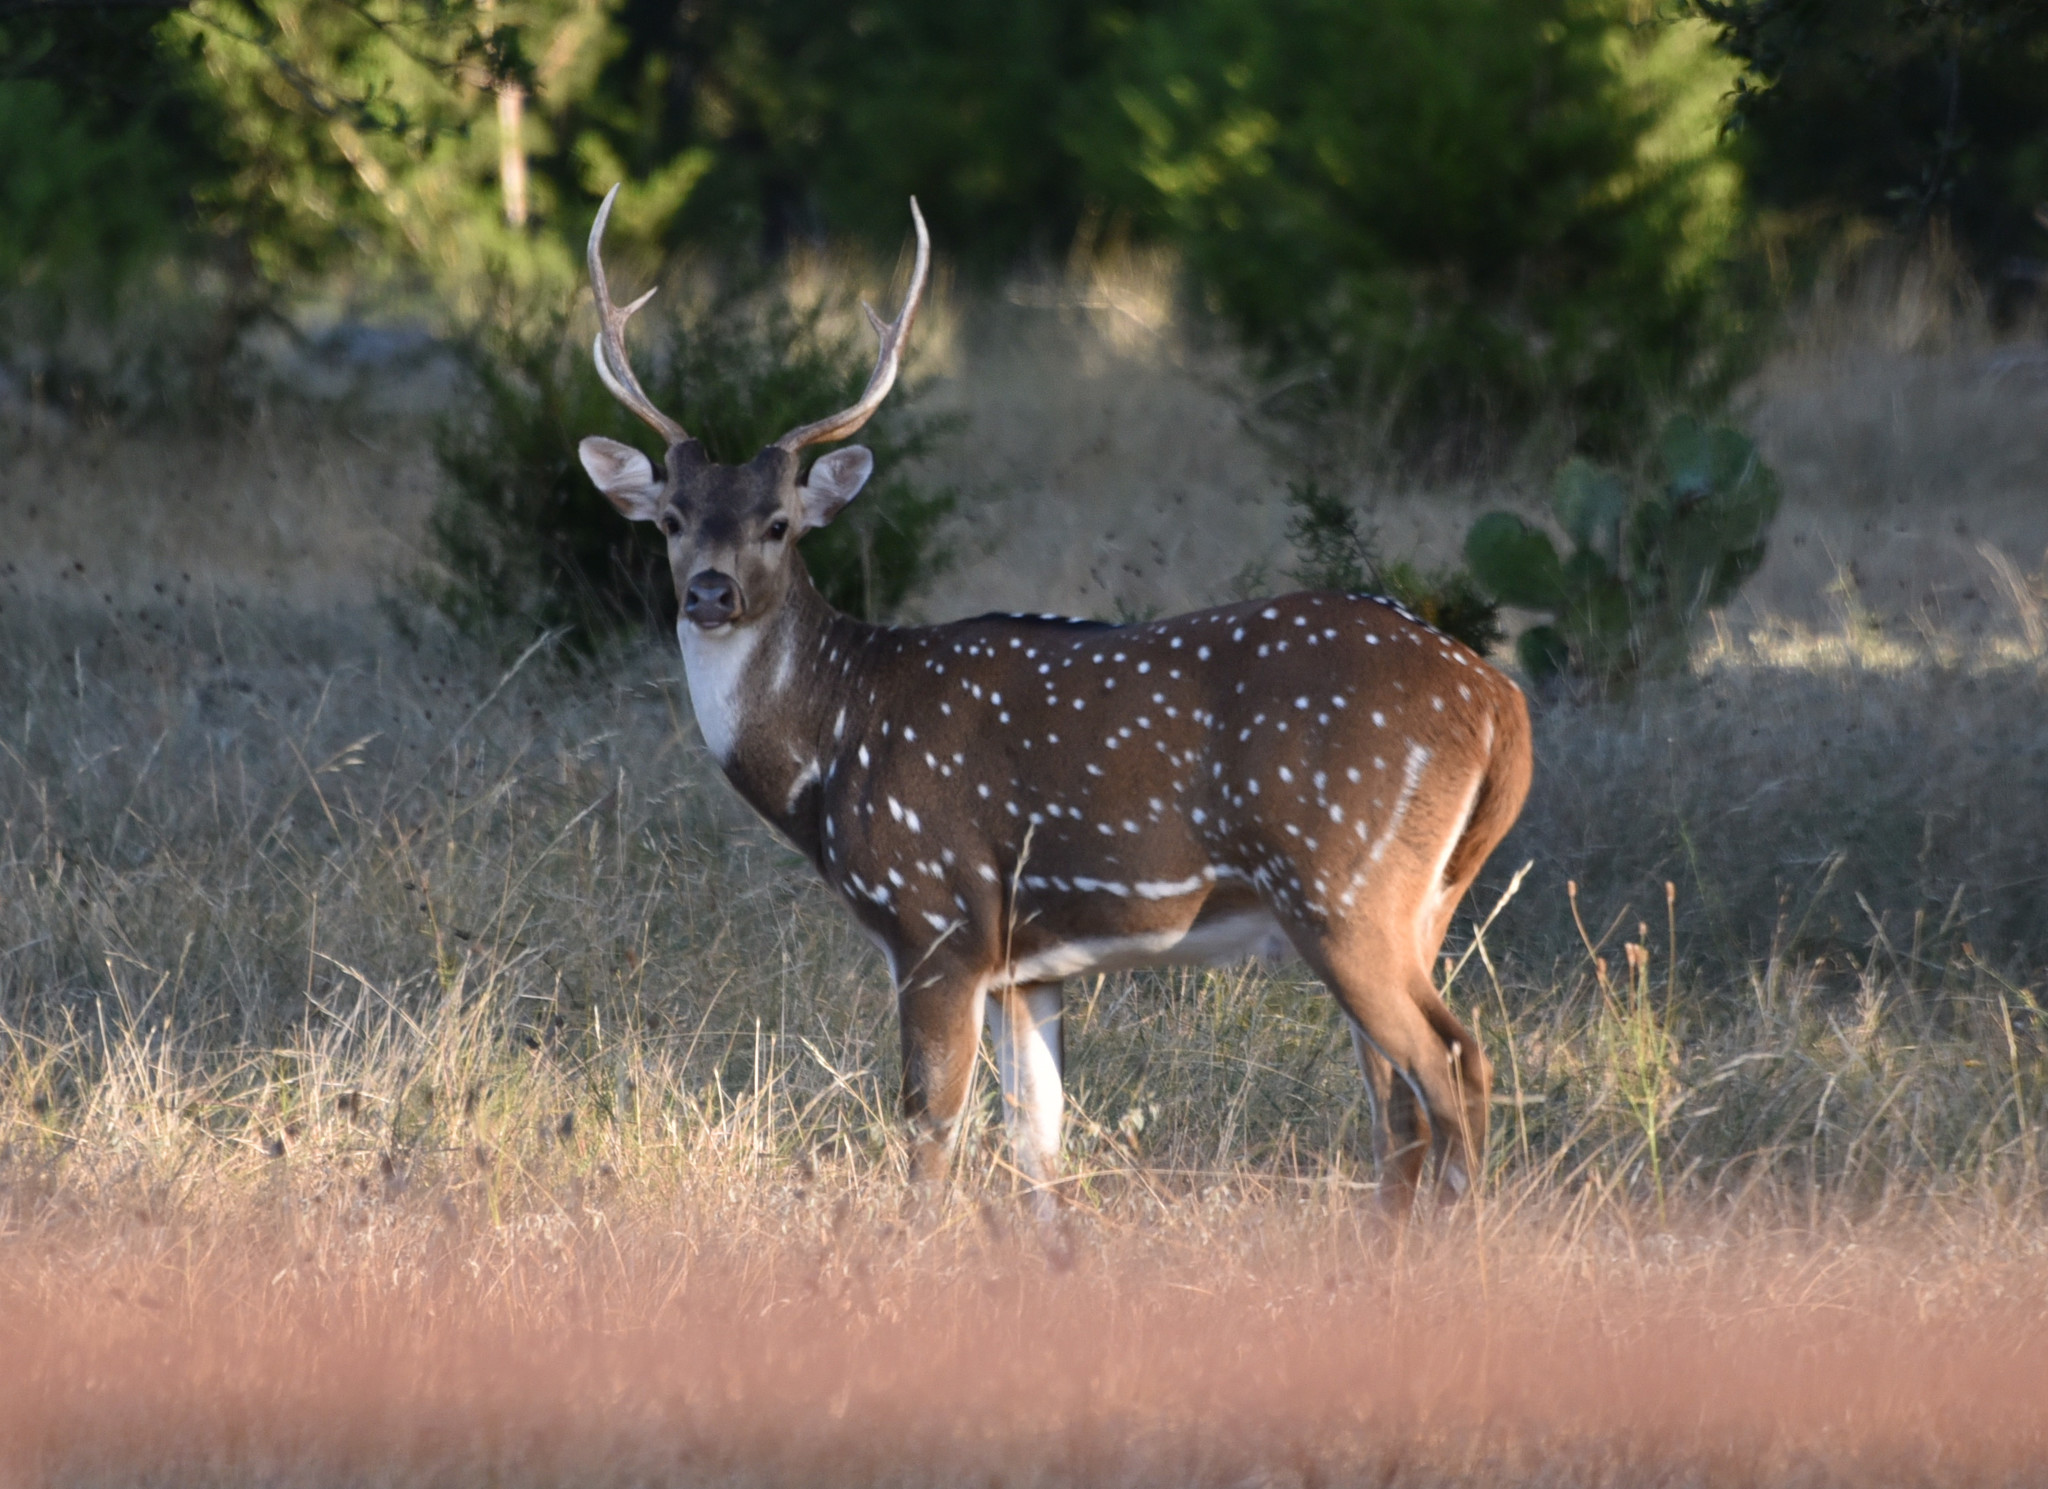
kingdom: Animalia
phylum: Chordata
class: Mammalia
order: Artiodactyla
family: Cervidae
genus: Axis
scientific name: Axis axis
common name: Chital
